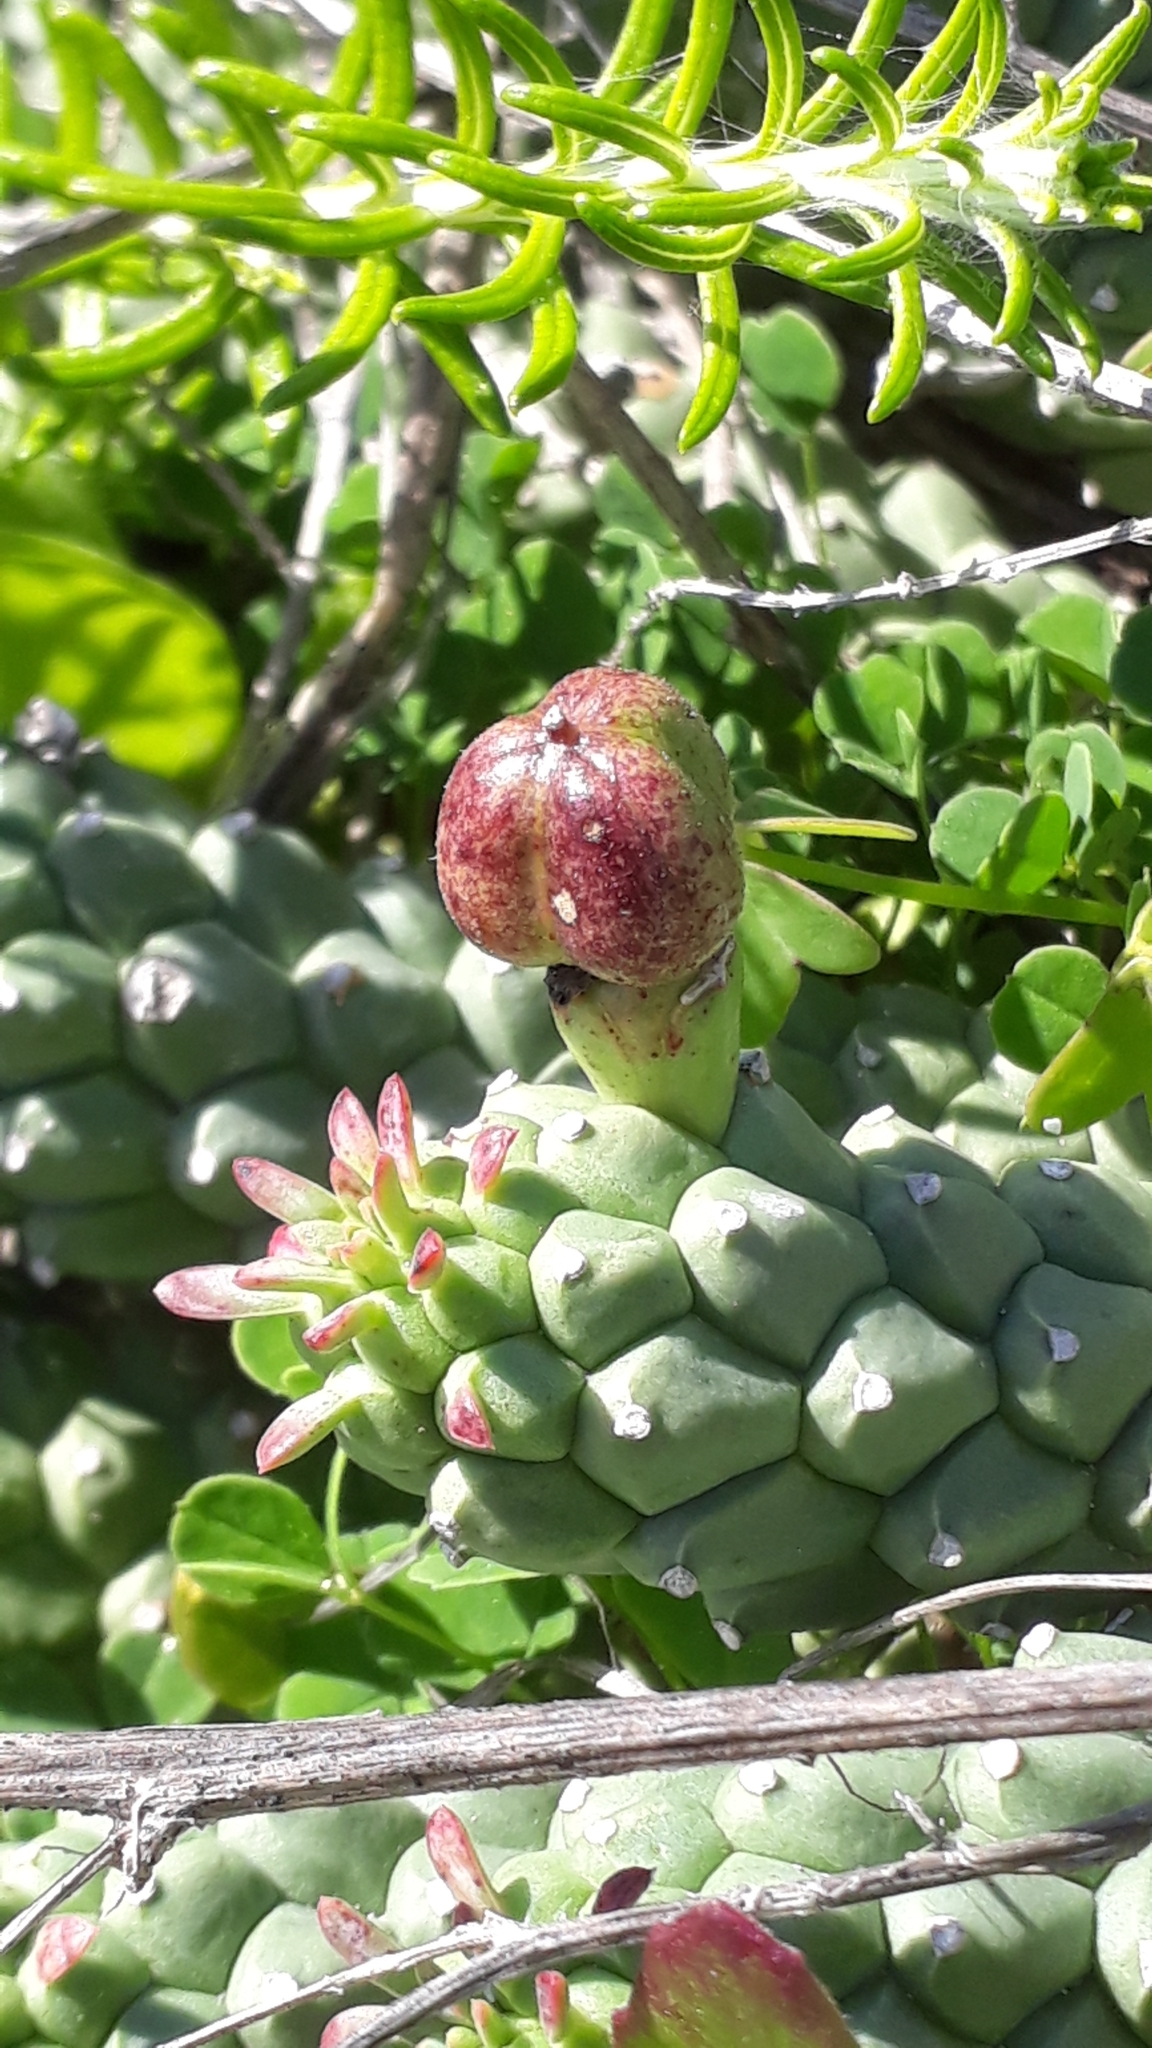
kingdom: Plantae
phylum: Tracheophyta
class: Magnoliopsida
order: Malpighiales
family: Euphorbiaceae
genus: Euphorbia
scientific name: Euphorbia caput-medusae
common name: Medusa's-head
